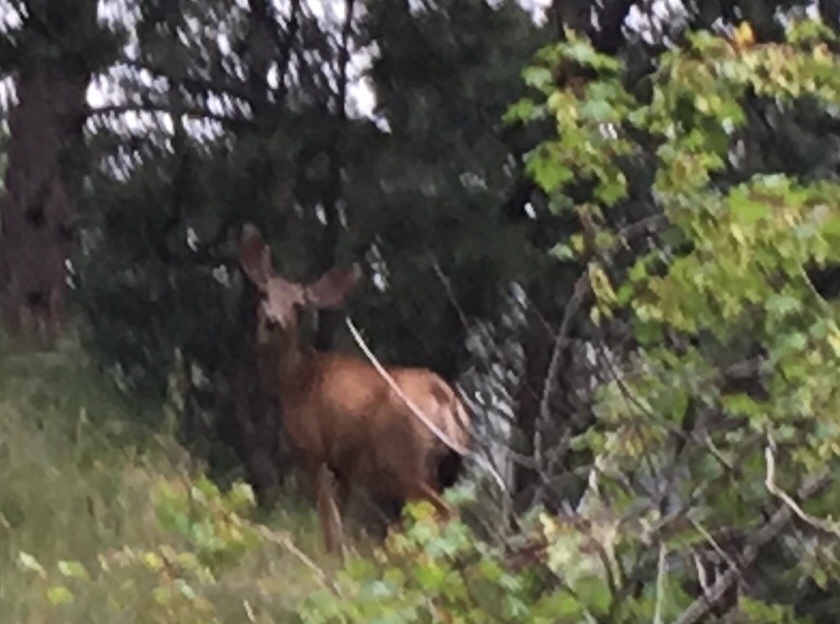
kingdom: Animalia
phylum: Chordata
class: Mammalia
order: Artiodactyla
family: Cervidae
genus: Odocoileus
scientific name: Odocoileus hemionus
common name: Mule deer
